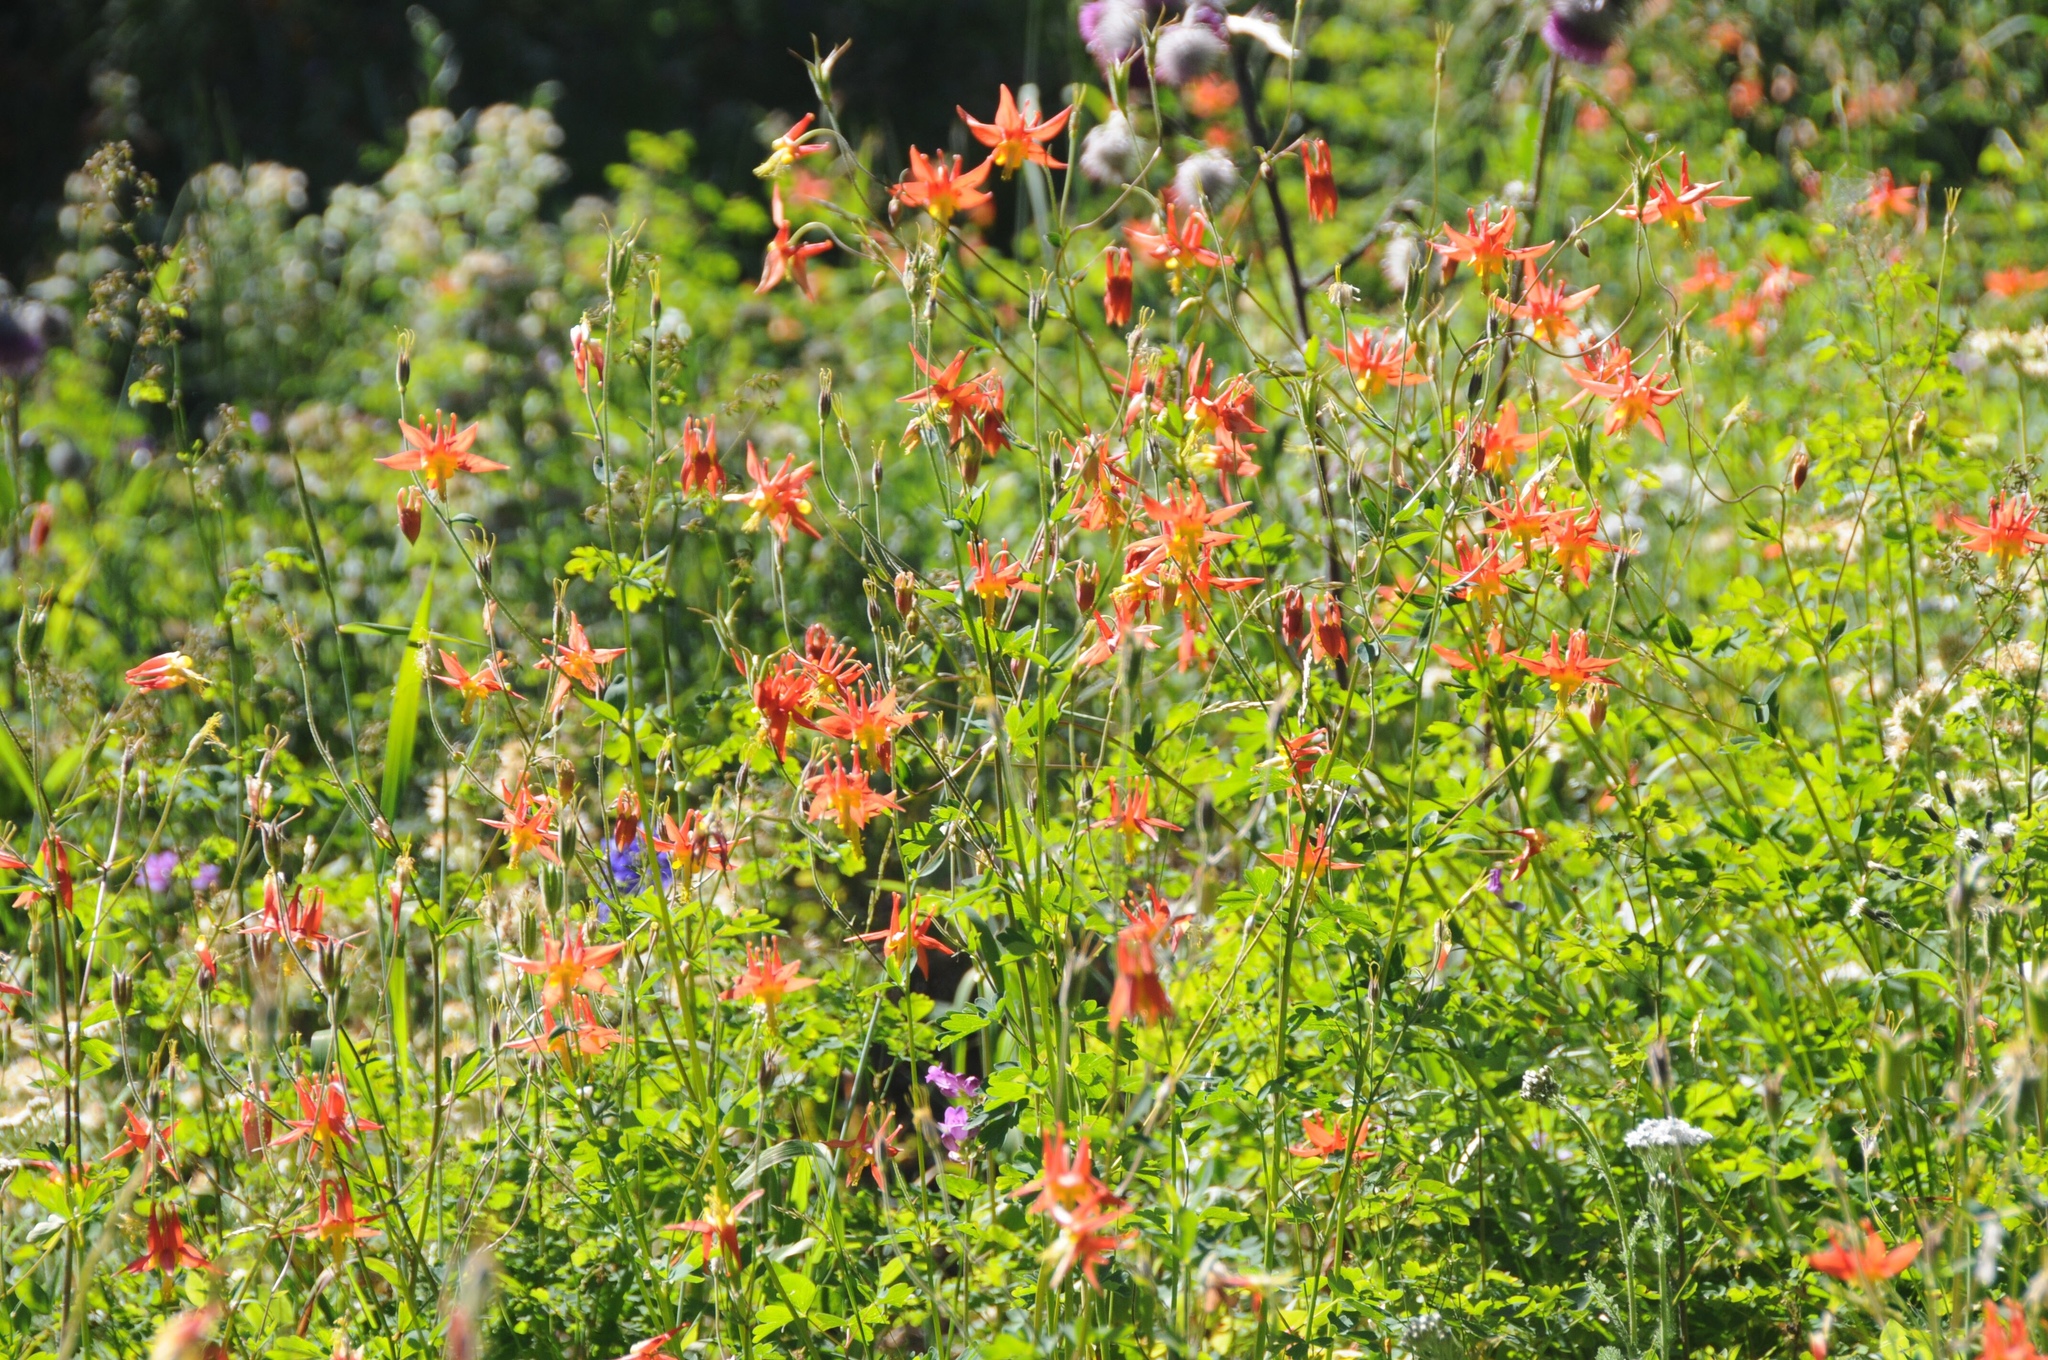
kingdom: Plantae
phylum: Tracheophyta
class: Magnoliopsida
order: Ranunculales
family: Ranunculaceae
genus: Aquilegia
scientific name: Aquilegia formosa
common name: Sitka columbine
